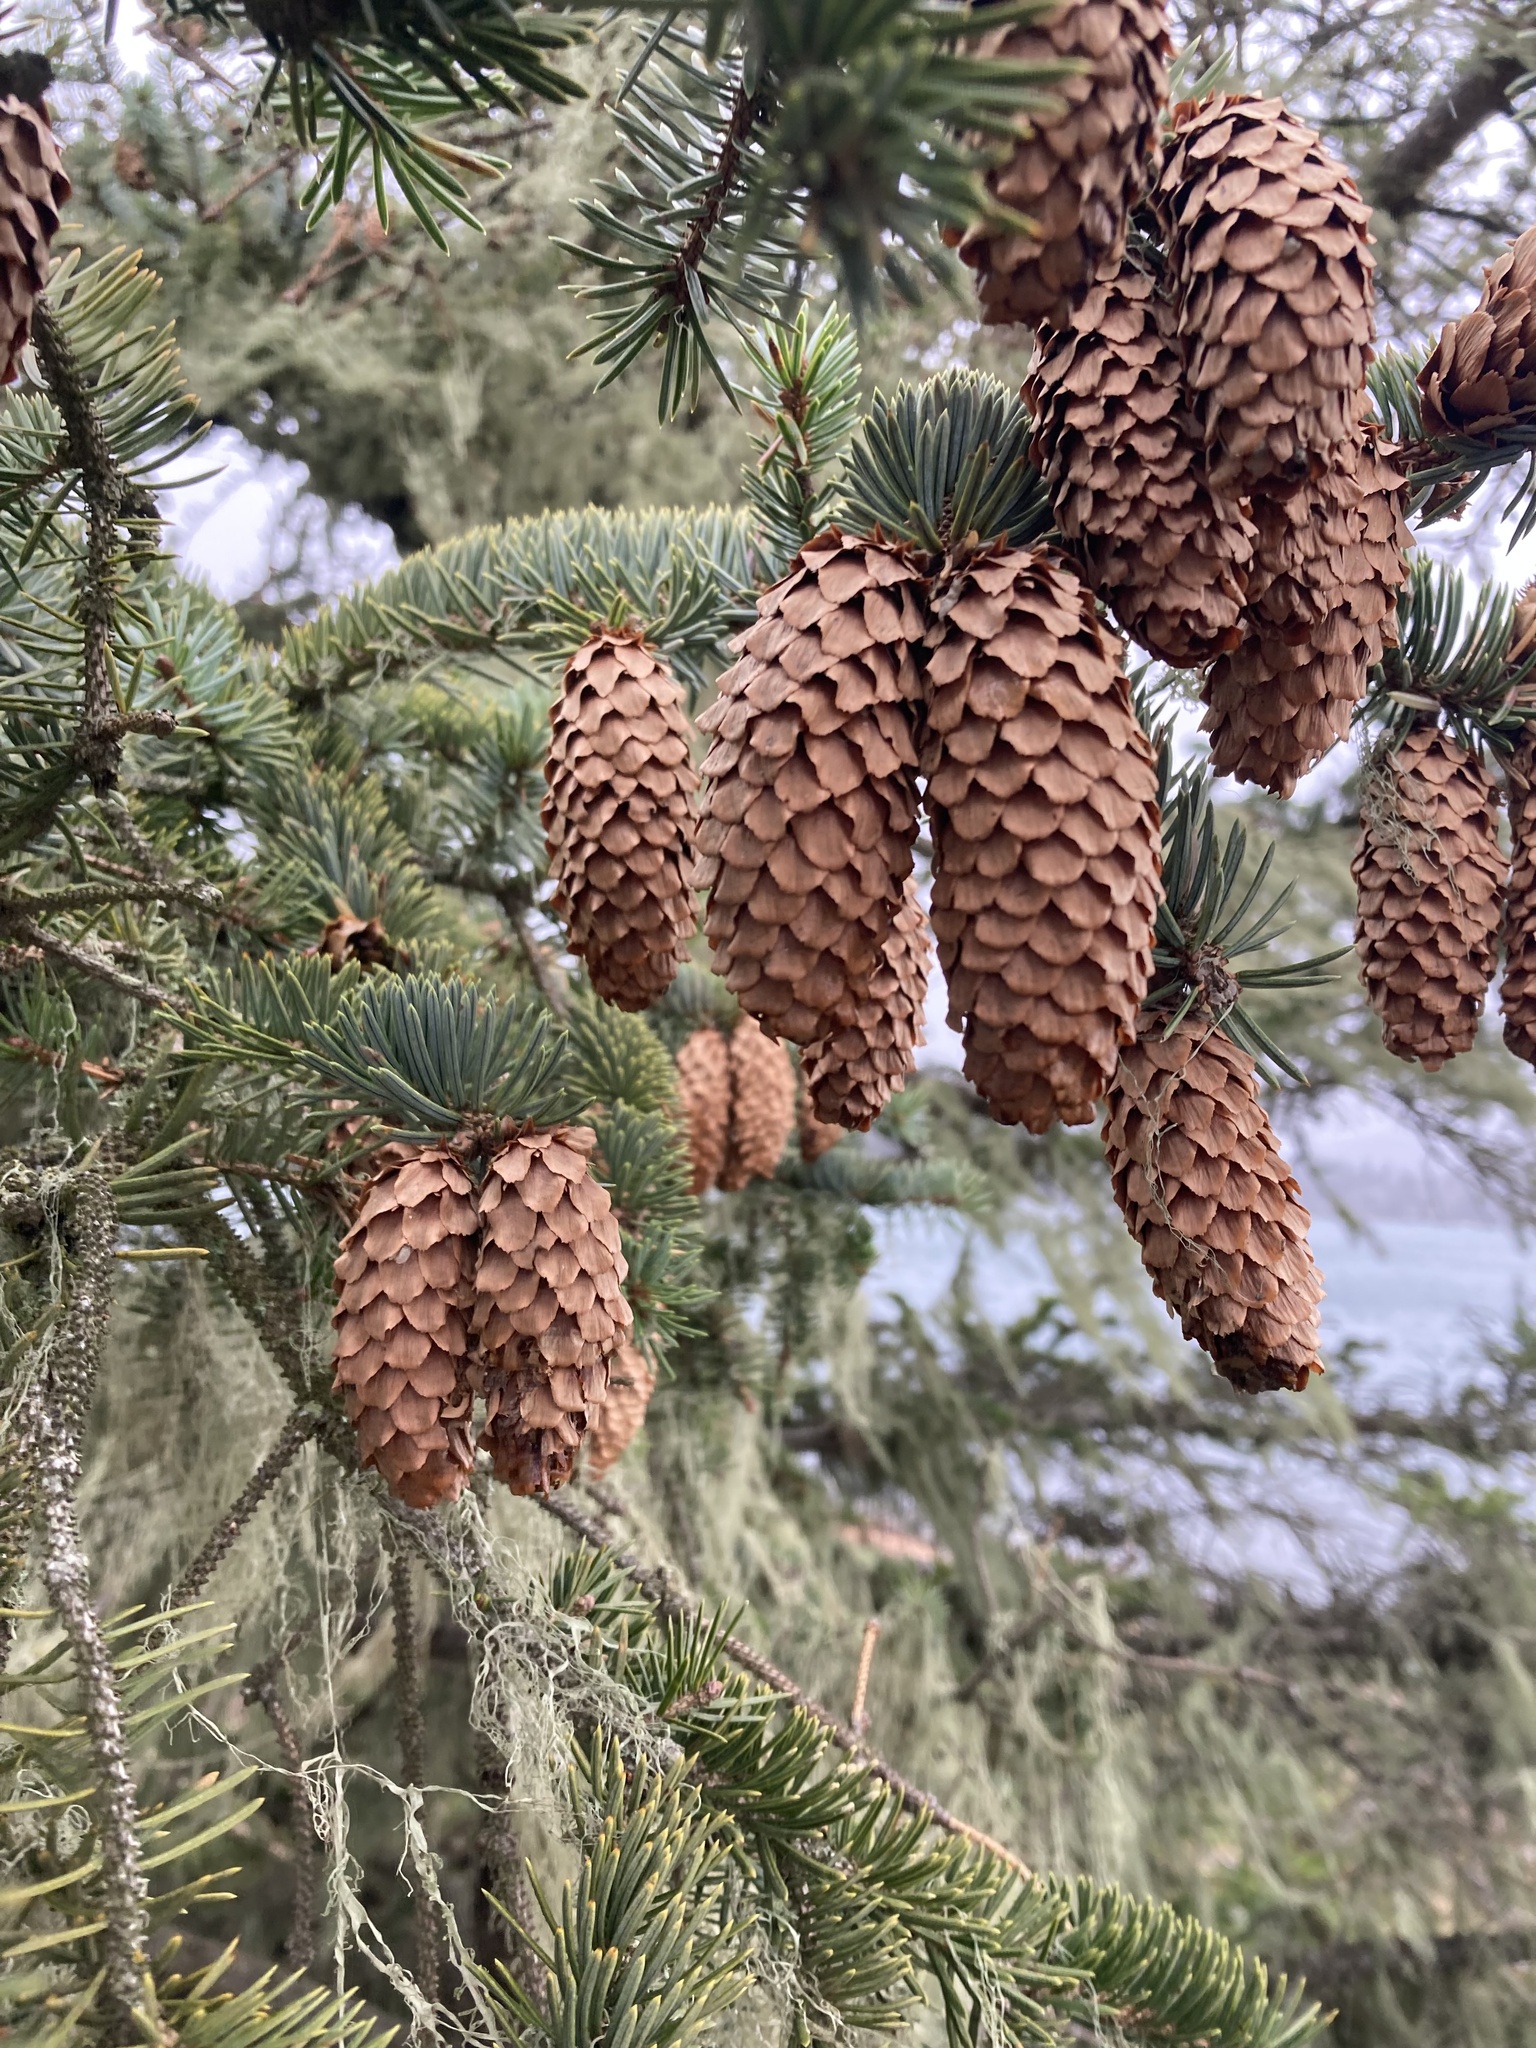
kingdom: Plantae
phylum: Tracheophyta
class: Pinopsida
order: Pinales
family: Pinaceae
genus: Picea
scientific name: Picea sitchensis
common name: Sitka spruce
